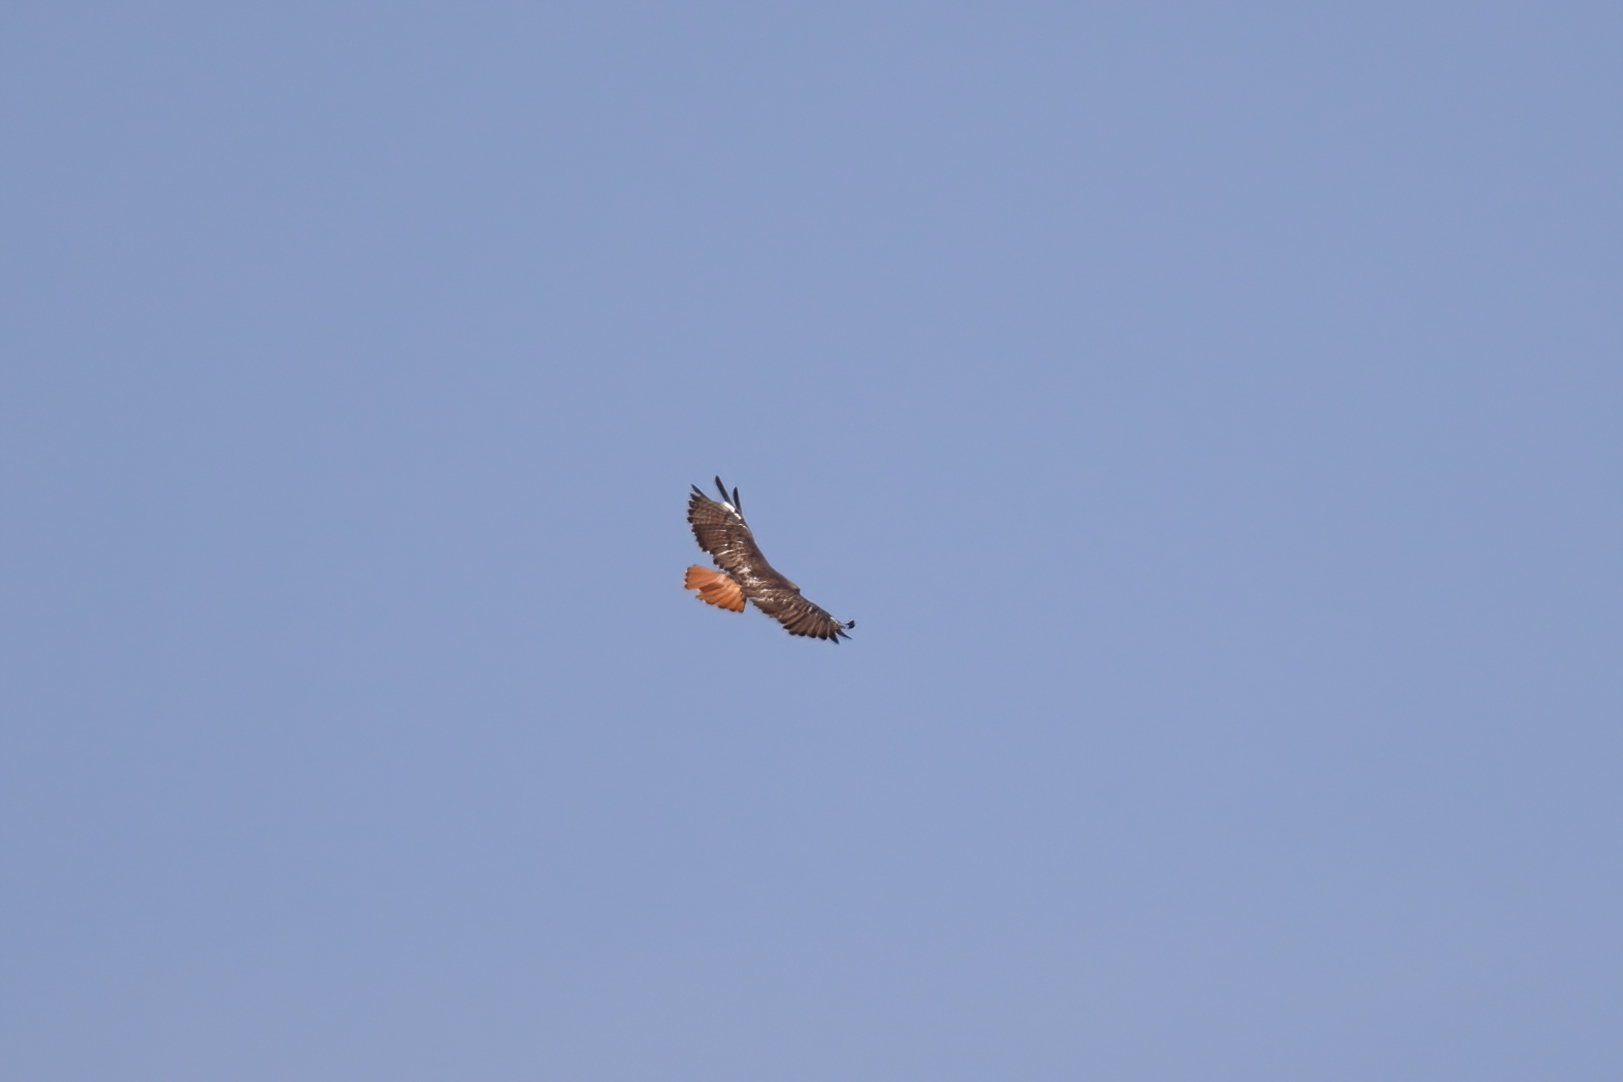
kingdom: Animalia
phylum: Chordata
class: Aves
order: Accipitriformes
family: Accipitridae
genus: Buteo
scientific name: Buteo jamaicensis
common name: Red-tailed hawk
